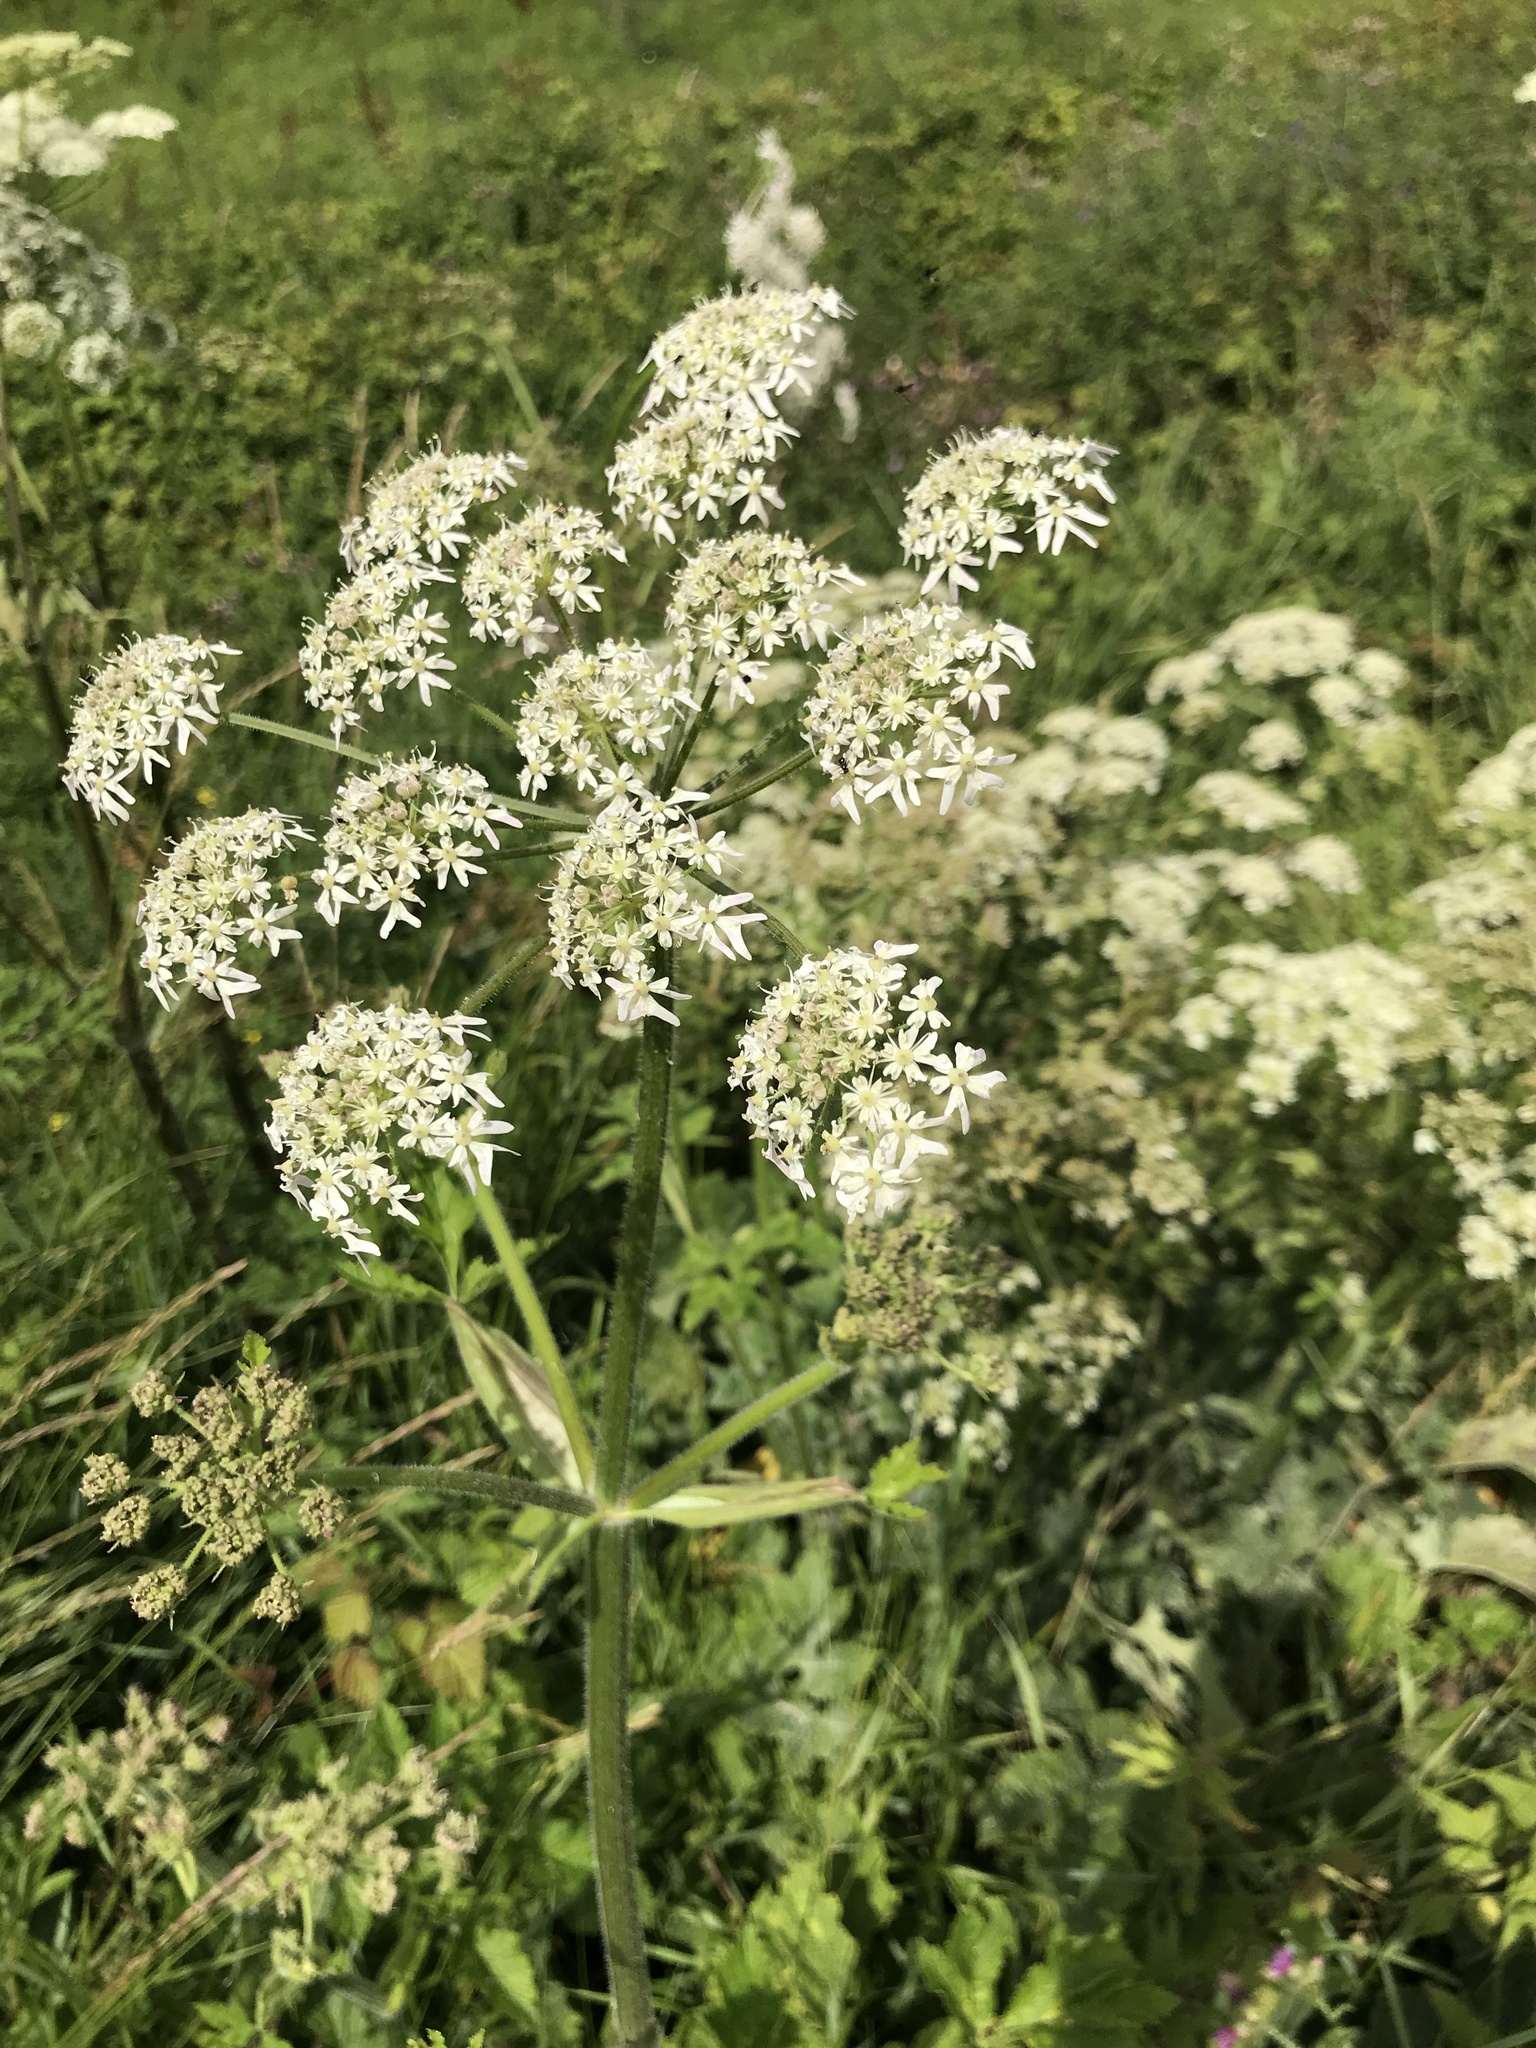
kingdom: Plantae
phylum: Tracheophyta
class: Magnoliopsida
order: Apiales
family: Apiaceae
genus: Heracleum
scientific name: Heracleum sphondylium
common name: Hogweed
